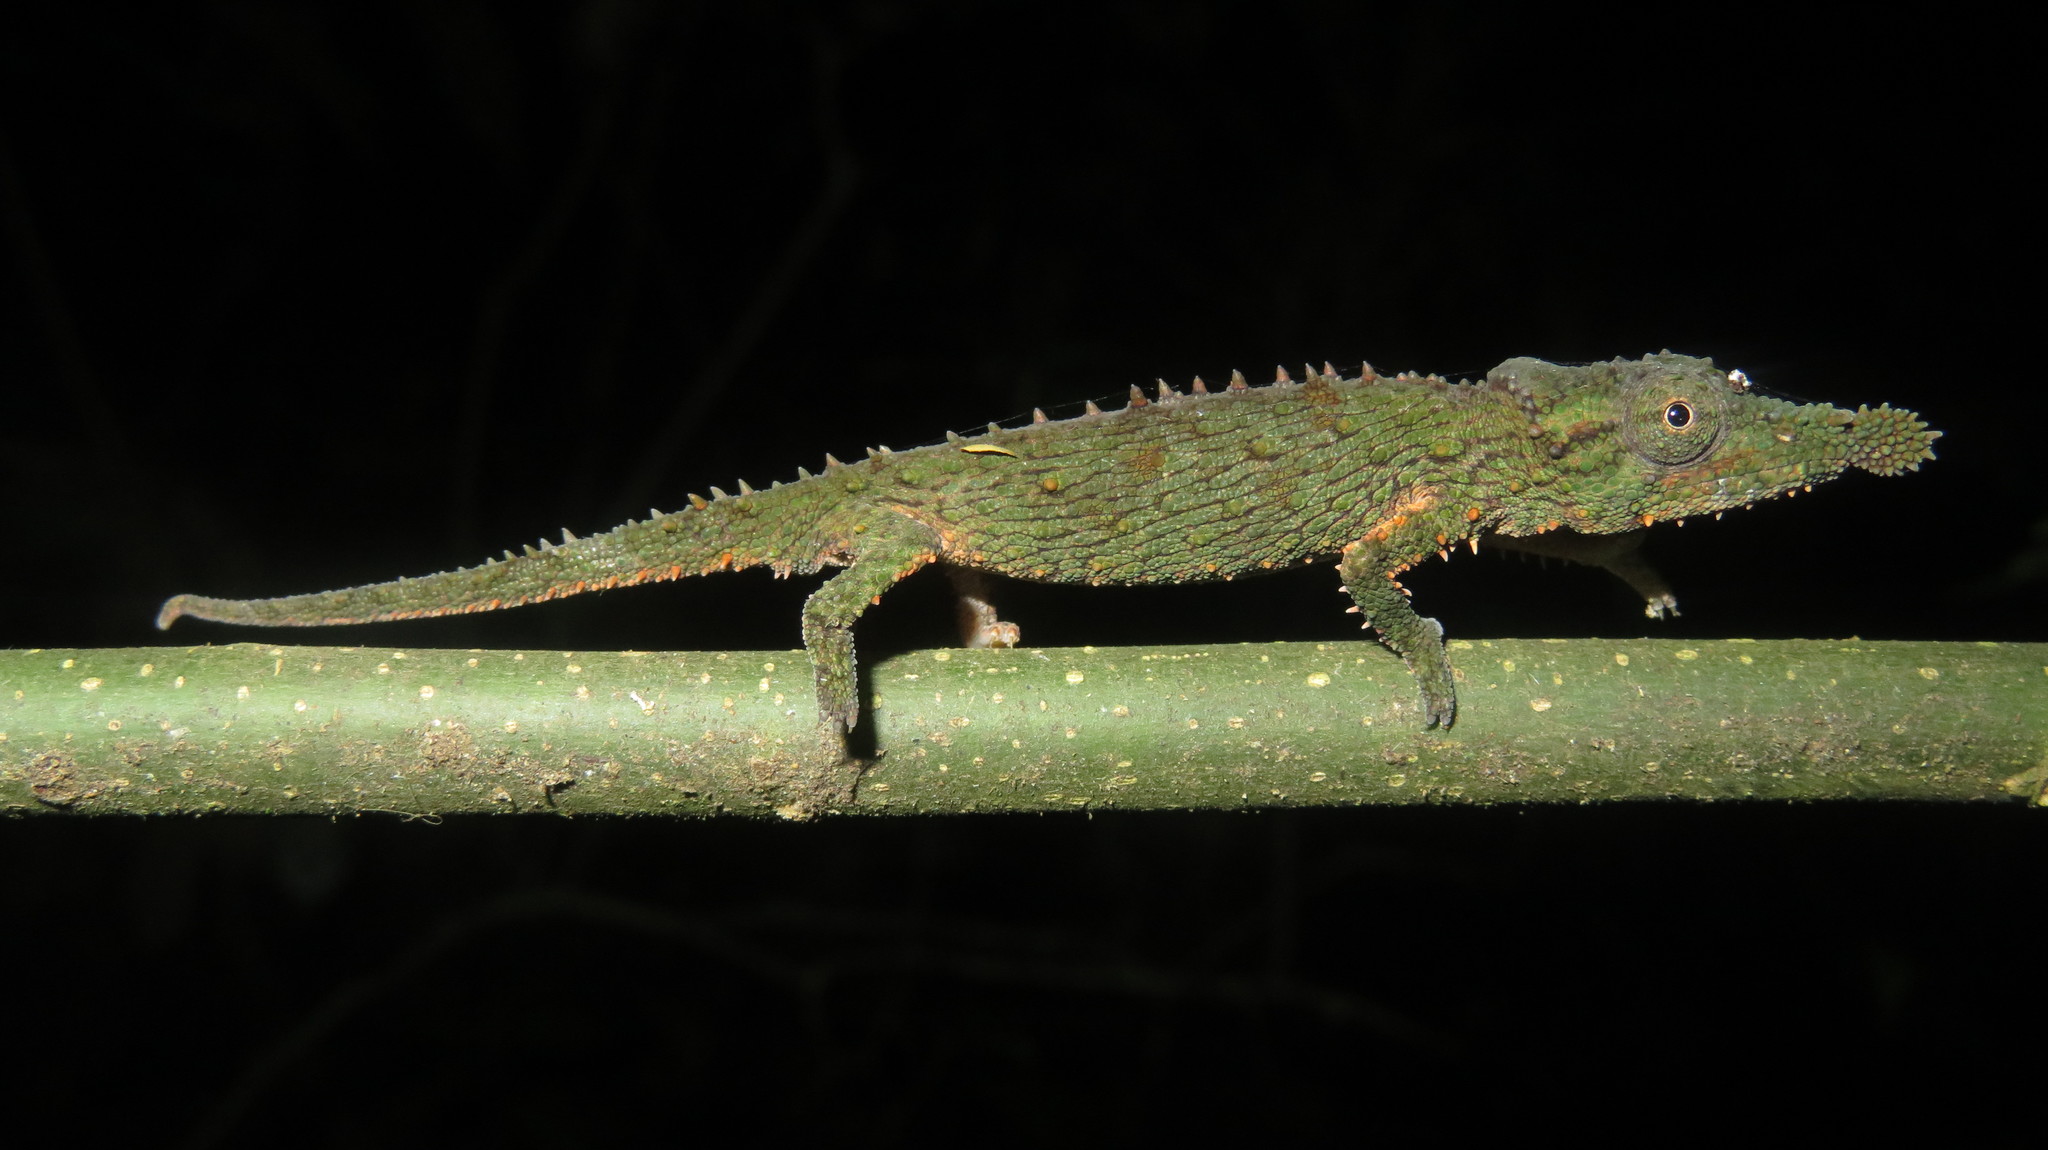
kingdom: Animalia
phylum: Chordata
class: Squamata
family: Chamaeleonidae
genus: Rhampholeon
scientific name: Rhampholeon spinosus
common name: Rosette-nosed pygmy chameleon
